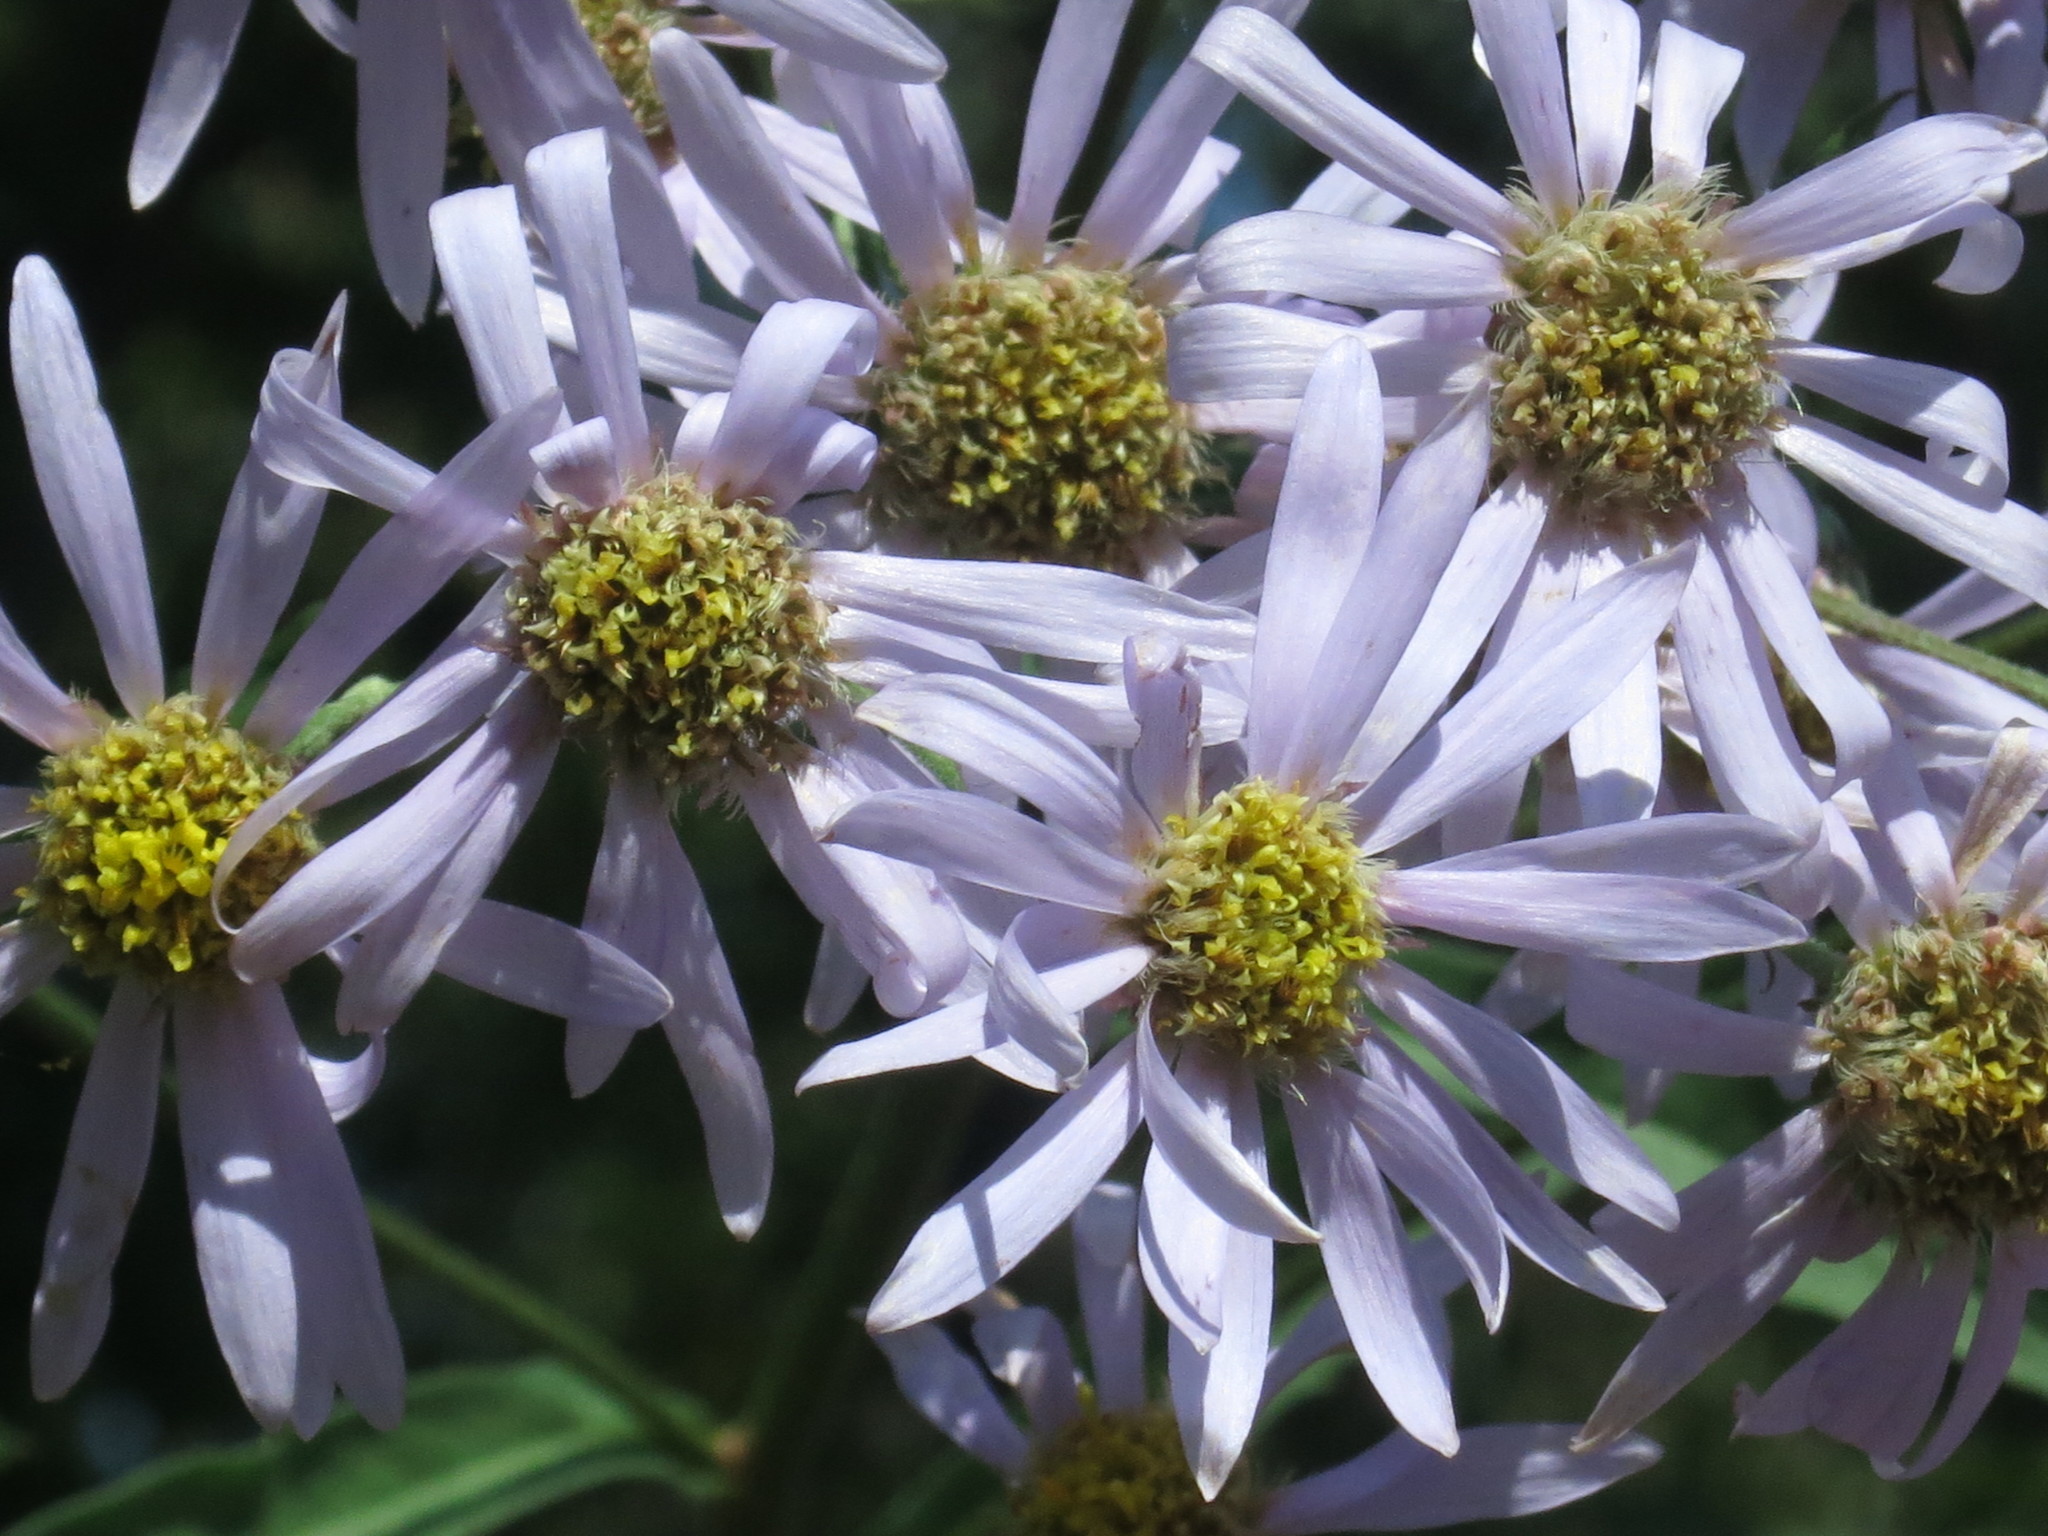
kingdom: Plantae
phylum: Tracheophyta
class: Magnoliopsida
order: Asterales
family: Asteraceae
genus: Aster
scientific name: Aster tataricus
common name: Tatarian aster
